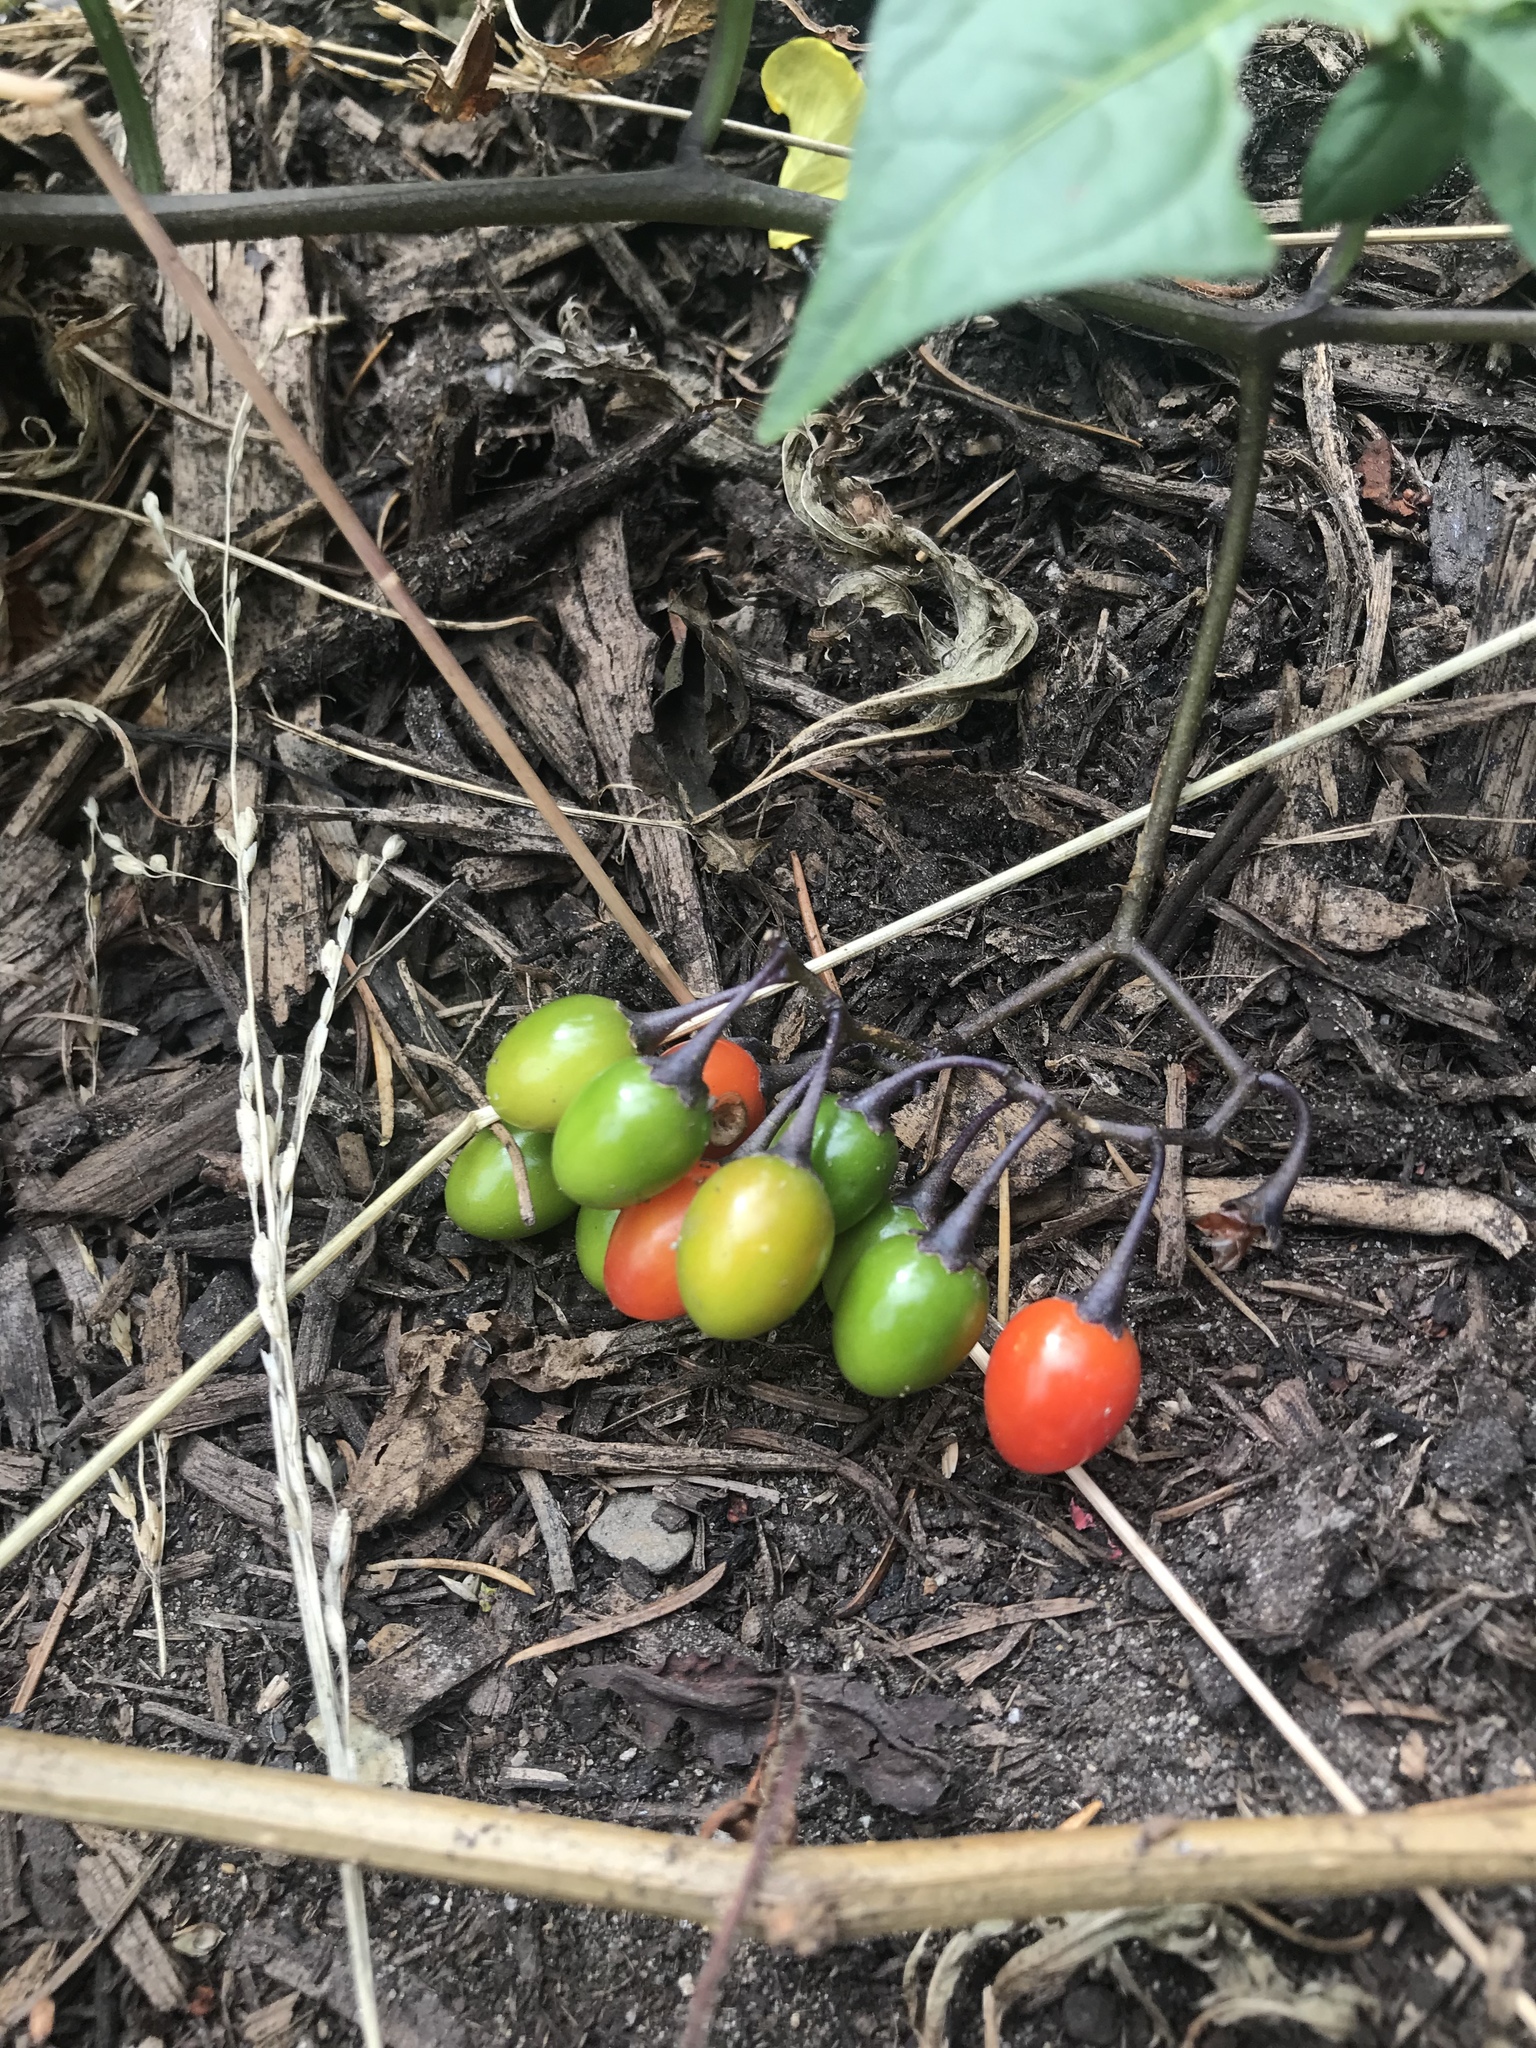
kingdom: Plantae
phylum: Tracheophyta
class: Magnoliopsida
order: Solanales
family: Solanaceae
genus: Solanum
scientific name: Solanum dulcamara
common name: Climbing nightshade
